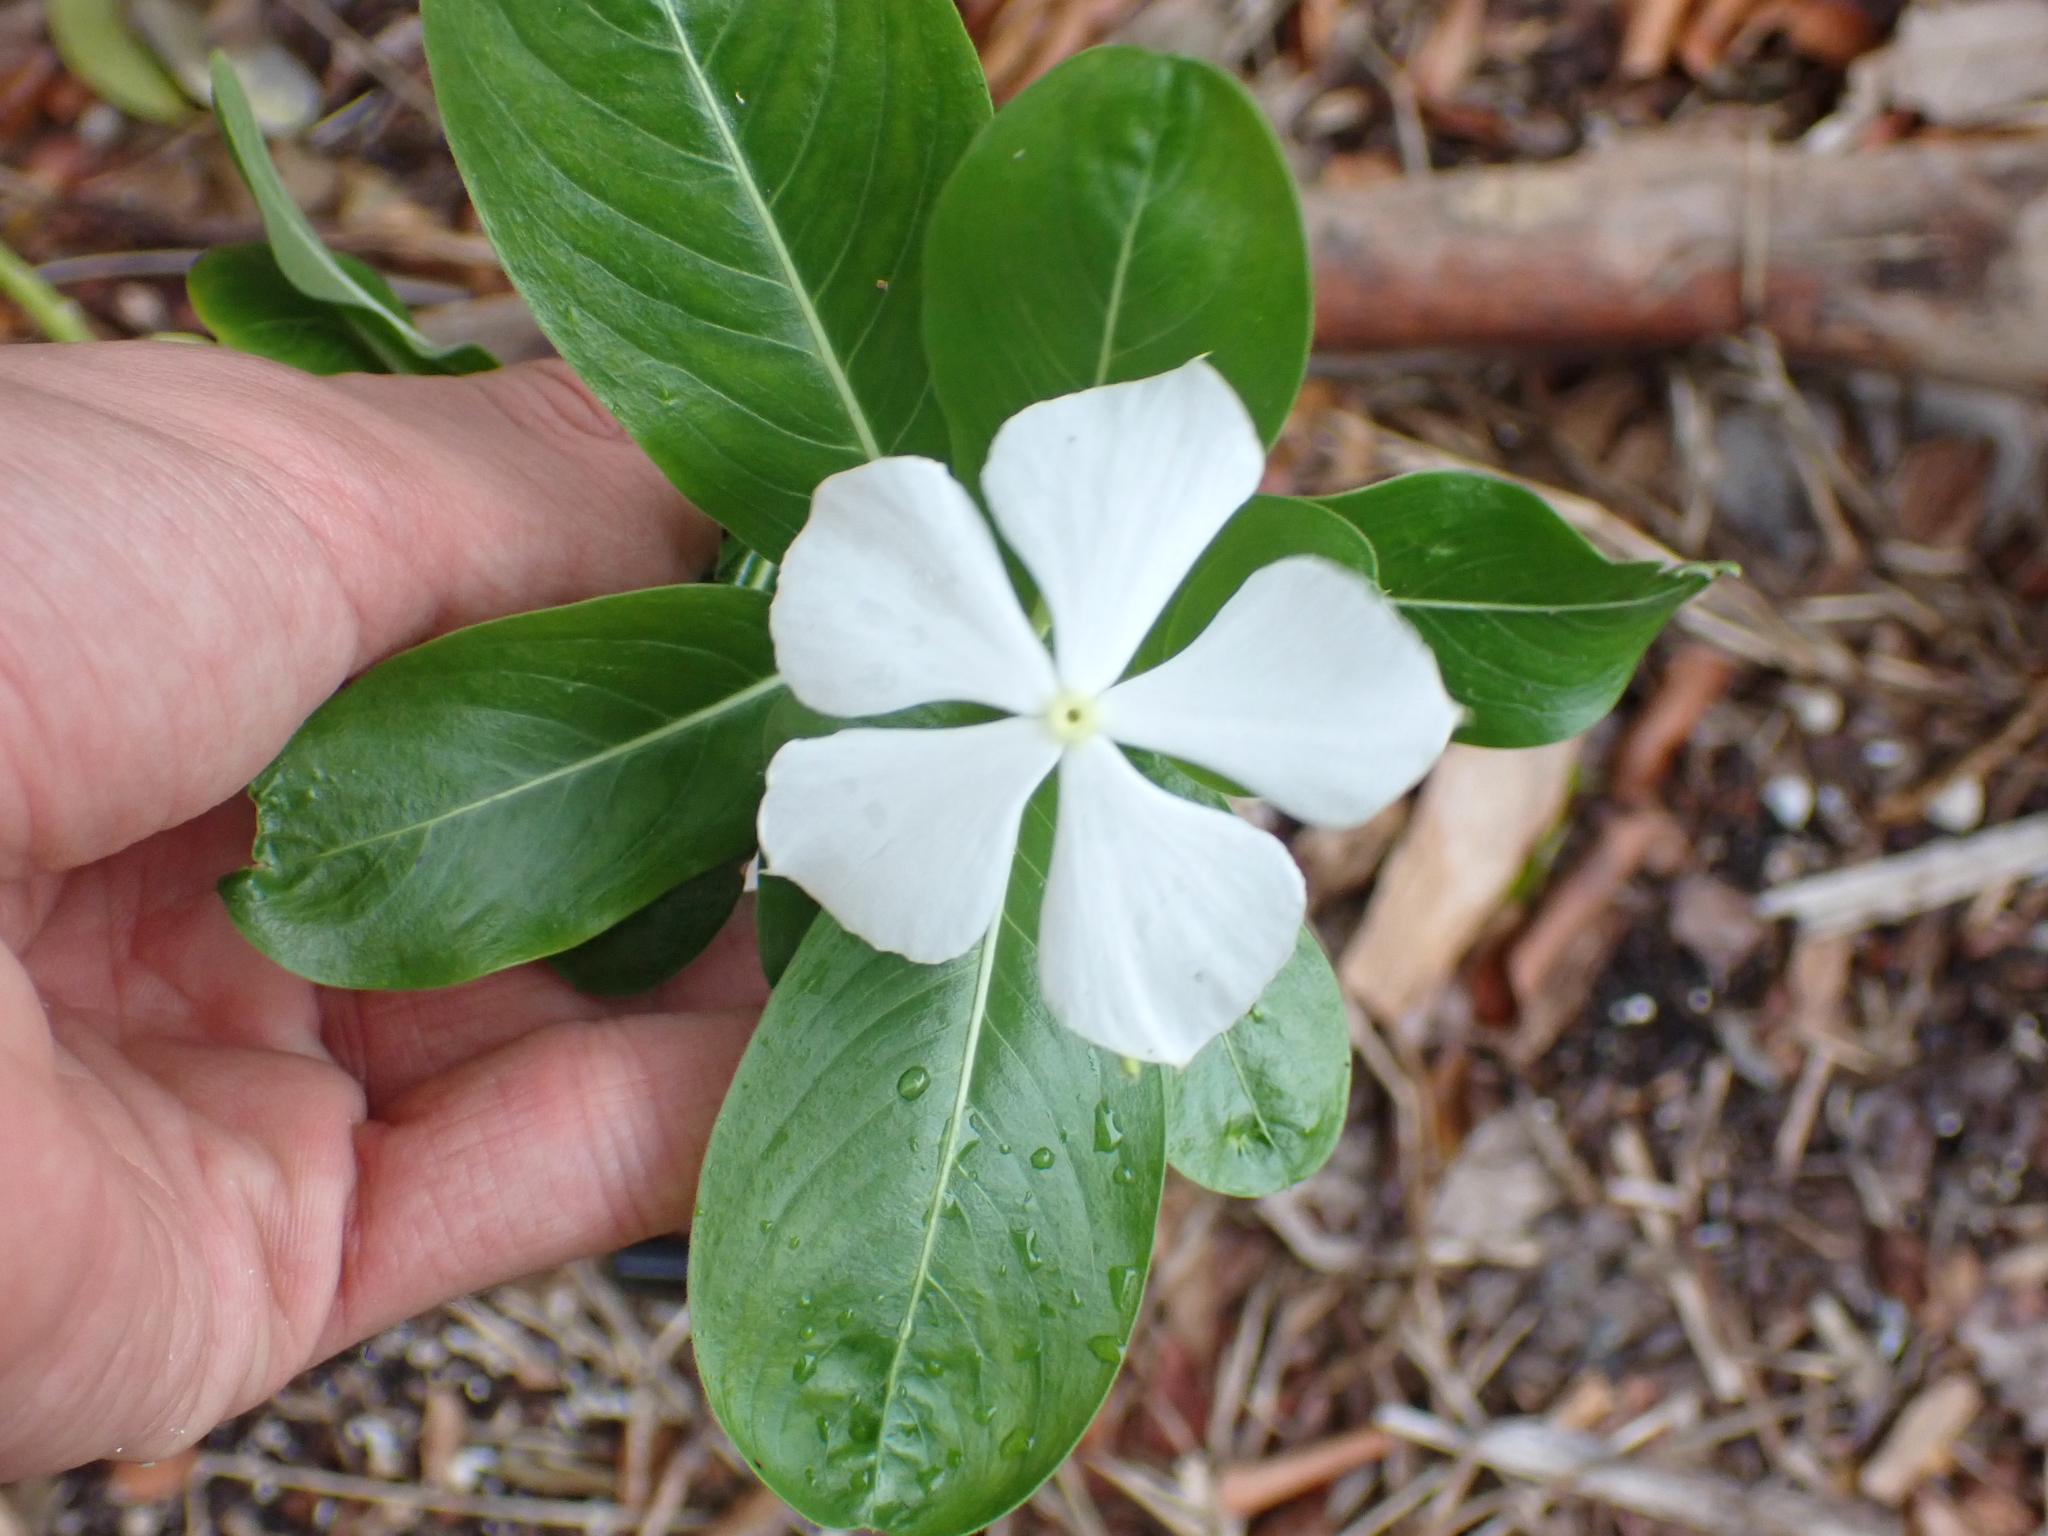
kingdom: Plantae
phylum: Tracheophyta
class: Magnoliopsida
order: Gentianales
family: Apocynaceae
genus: Catharanthus
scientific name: Catharanthus roseus
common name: Madagascar periwinkle
